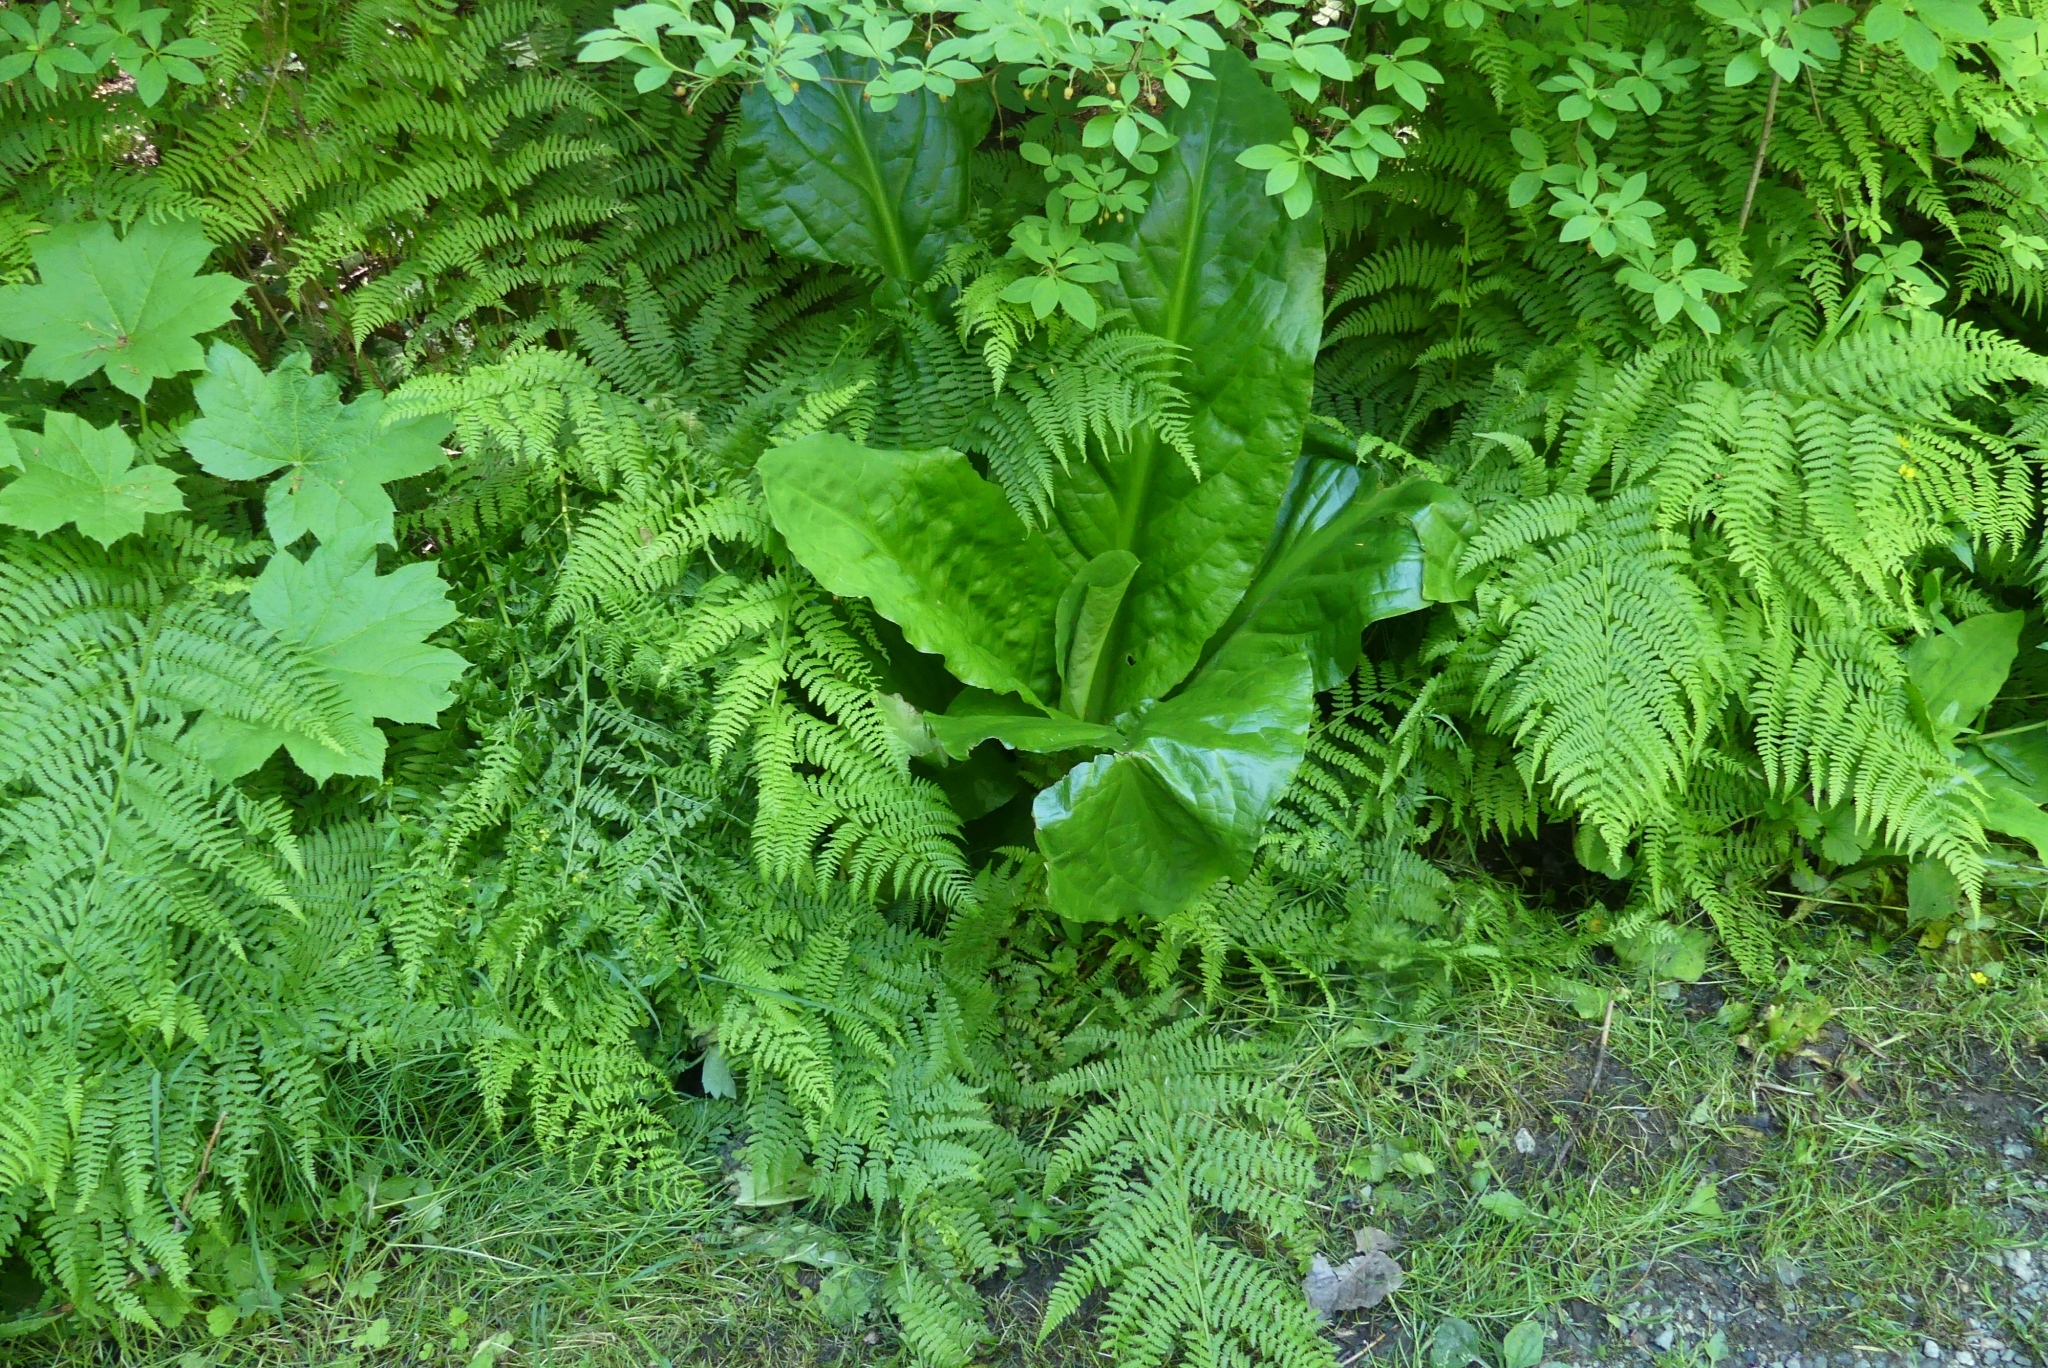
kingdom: Plantae
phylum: Tracheophyta
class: Liliopsida
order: Alismatales
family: Araceae
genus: Lysichiton
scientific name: Lysichiton americanus
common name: American skunk cabbage
